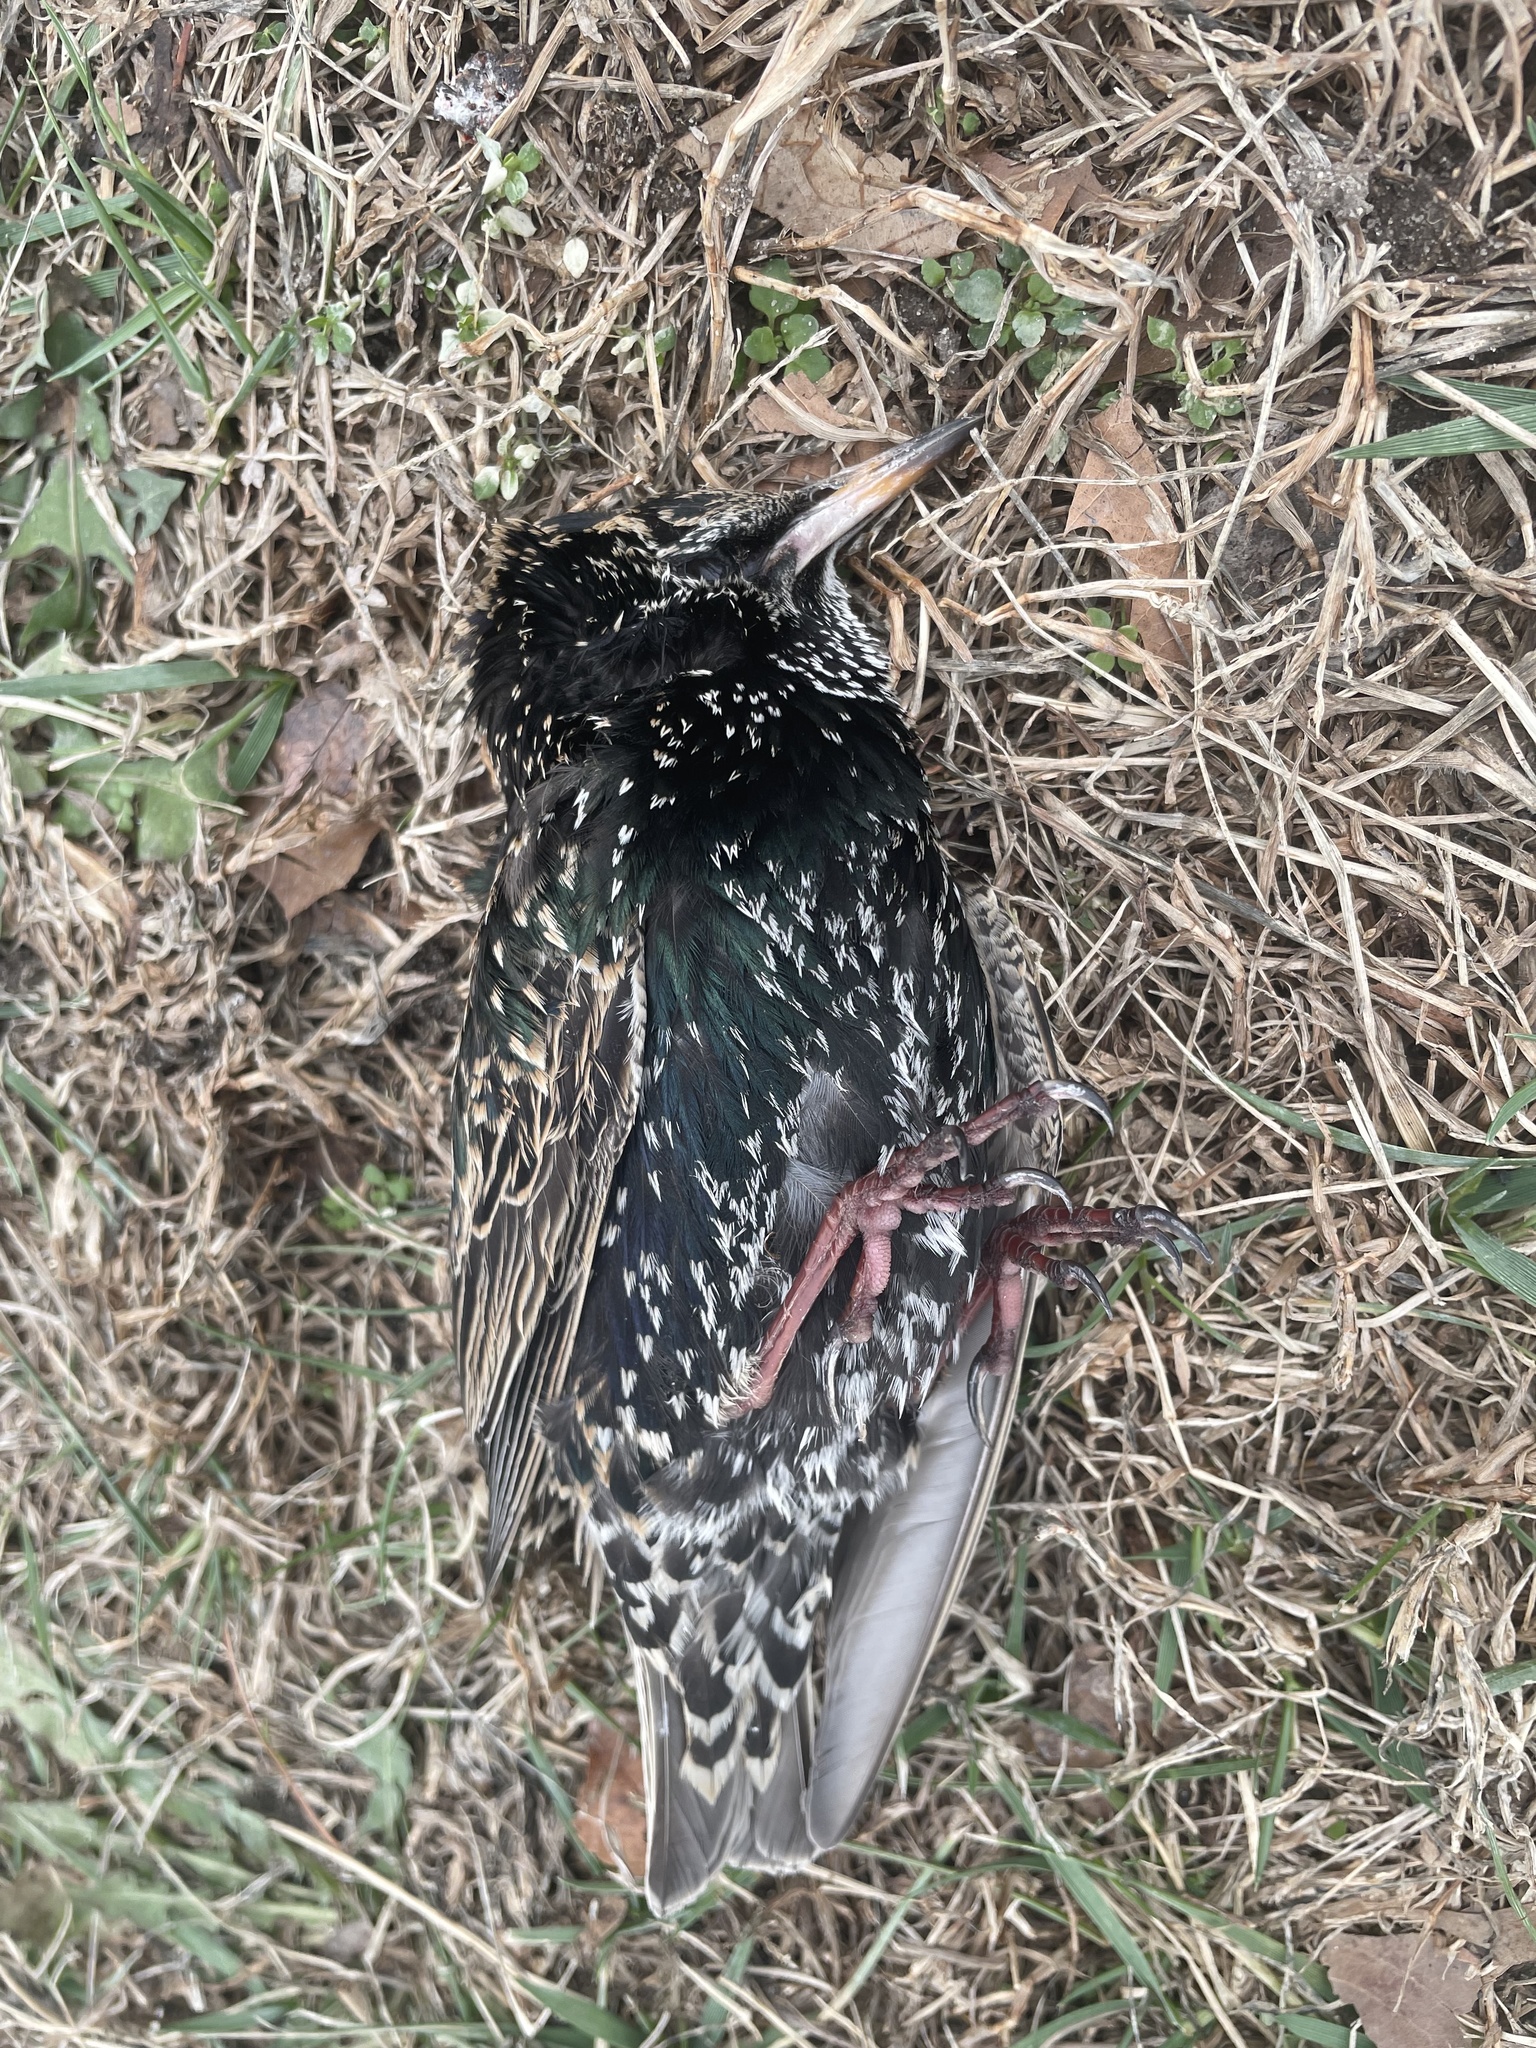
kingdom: Animalia
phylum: Chordata
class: Aves
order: Passeriformes
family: Sturnidae
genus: Sturnus
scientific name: Sturnus vulgaris
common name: Common starling
